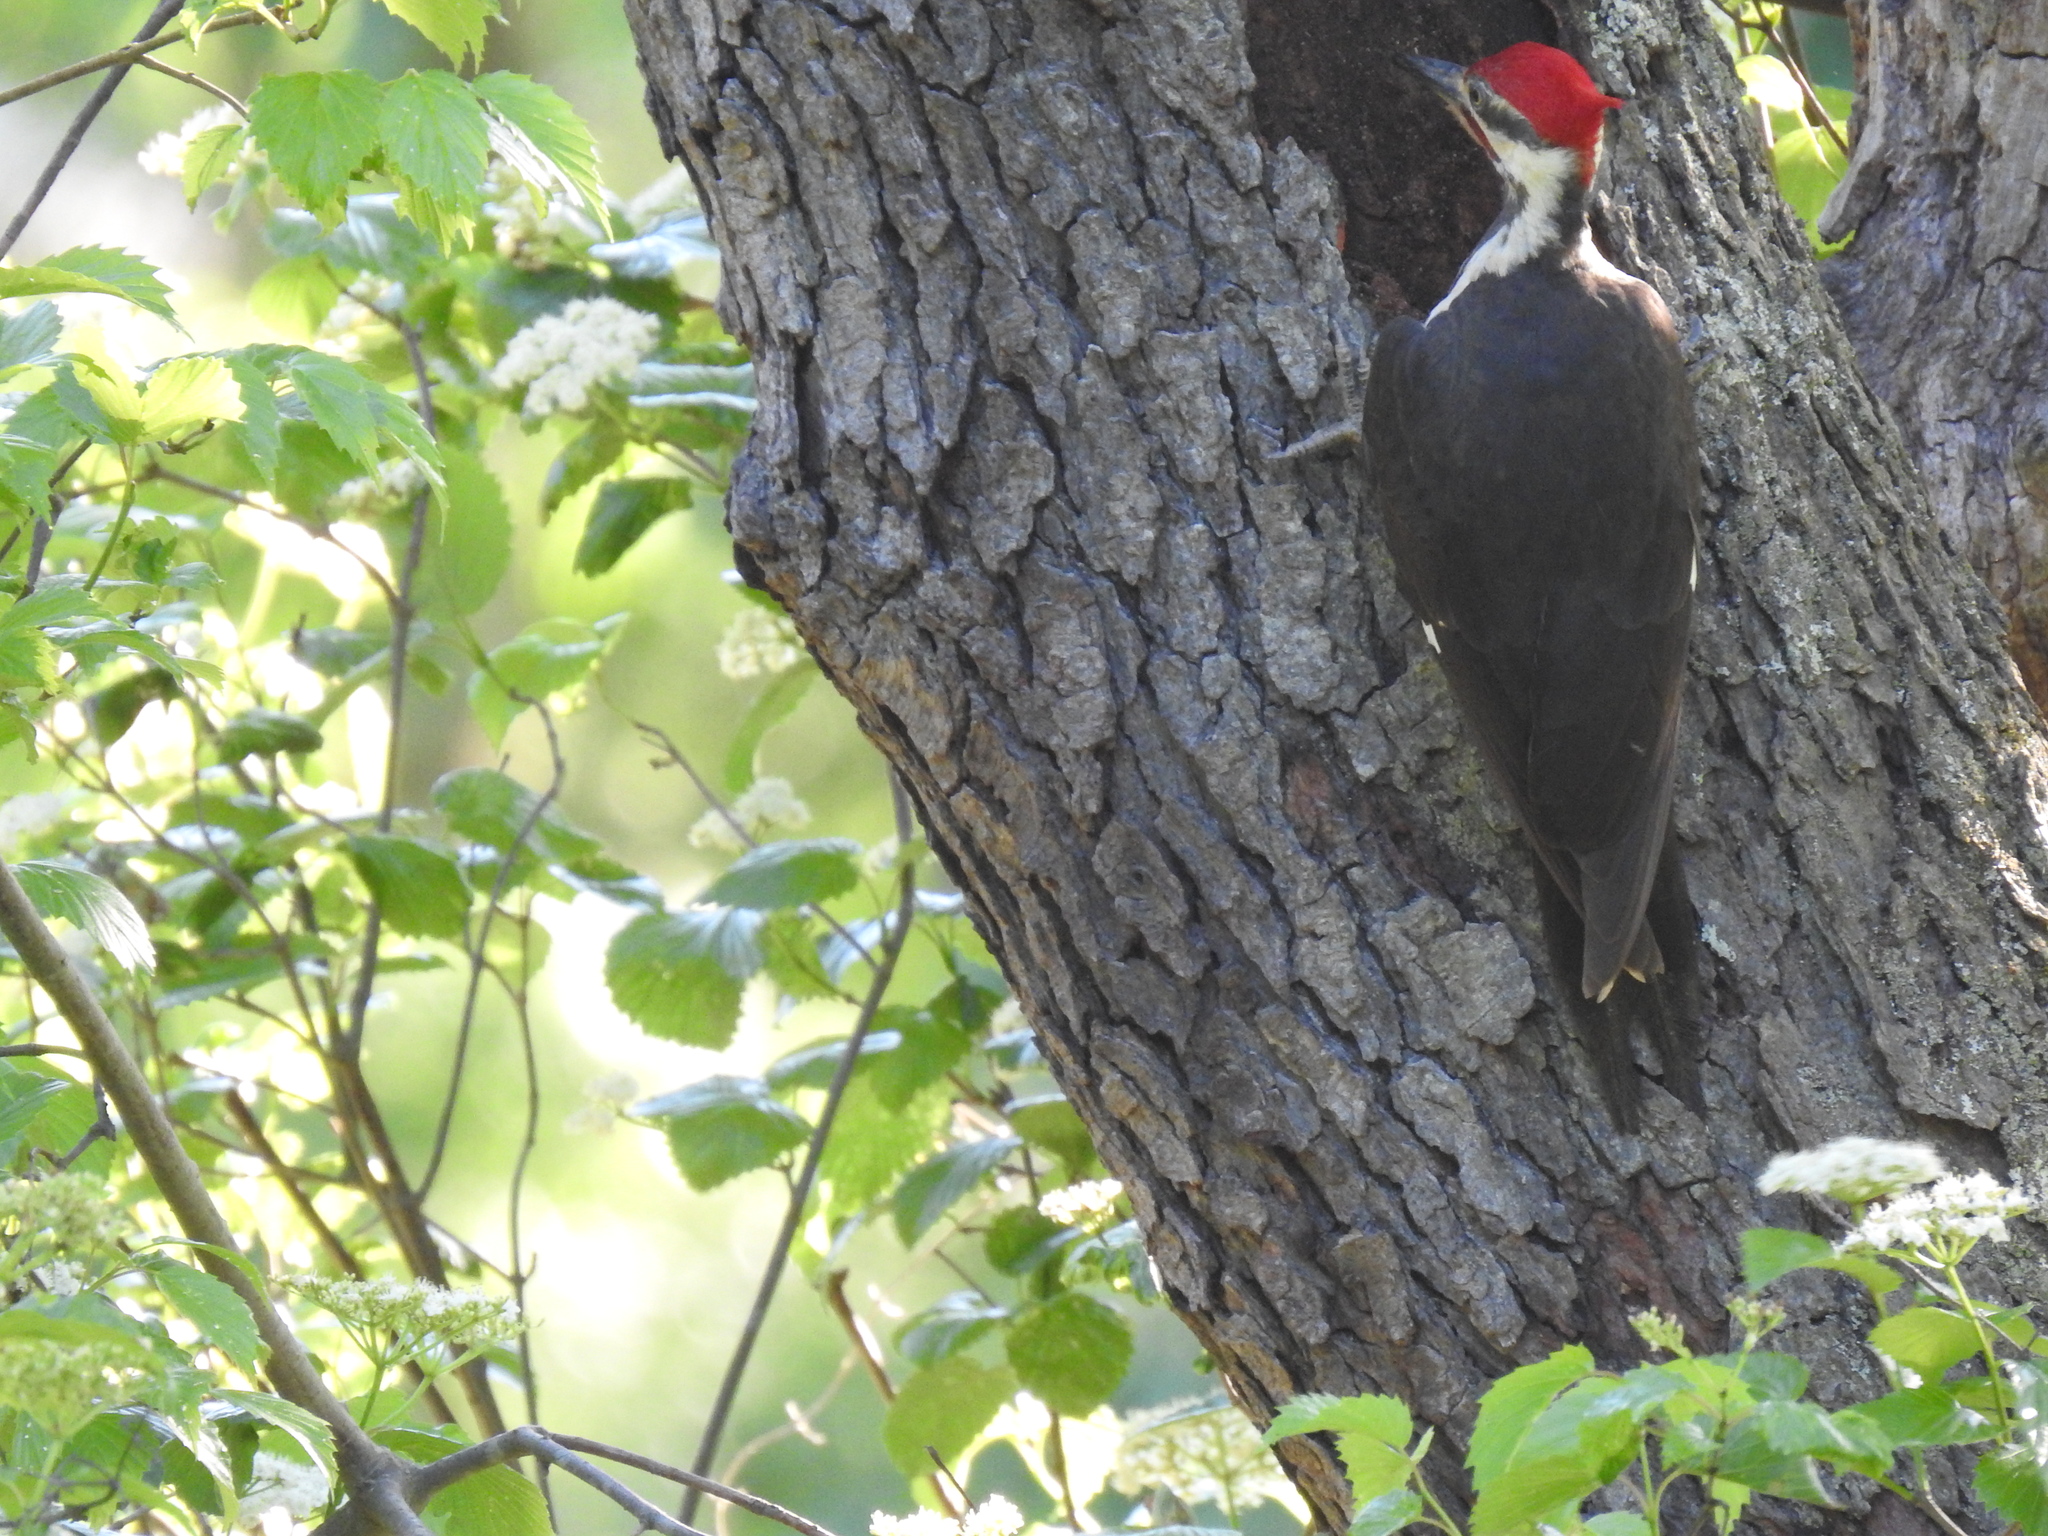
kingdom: Animalia
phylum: Chordata
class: Aves
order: Piciformes
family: Picidae
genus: Dryocopus
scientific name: Dryocopus pileatus
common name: Pileated woodpecker
